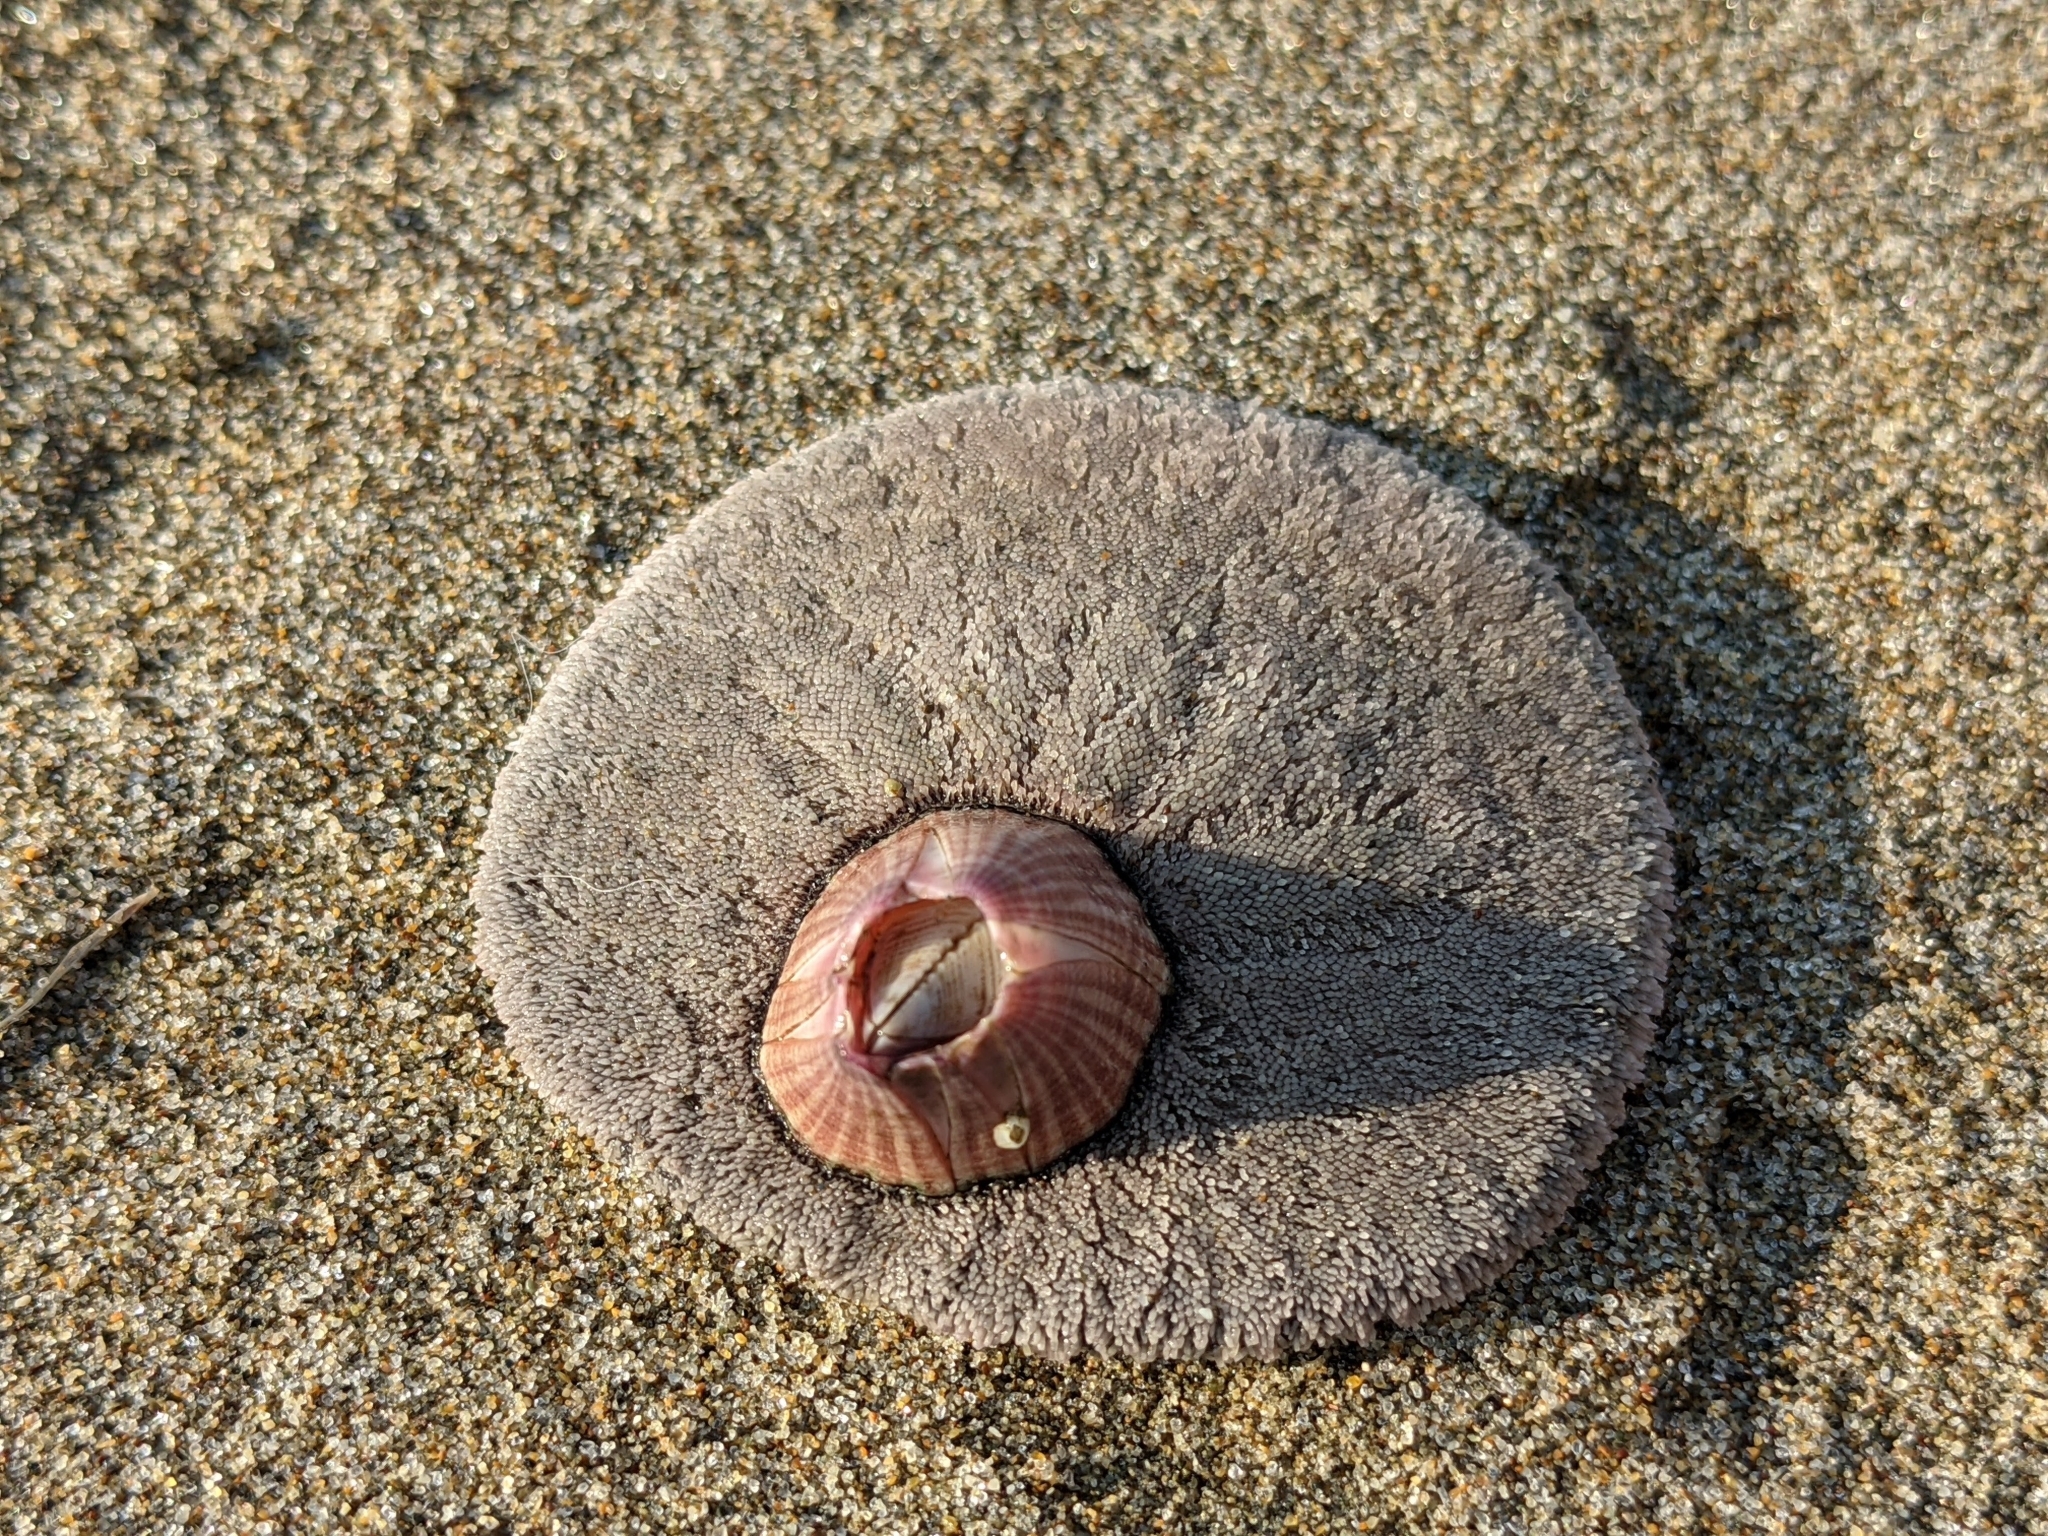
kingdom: Animalia
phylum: Arthropoda
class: Maxillopoda
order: Sessilia
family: Balanidae
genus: Paraconcavus
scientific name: Paraconcavus pacificus
